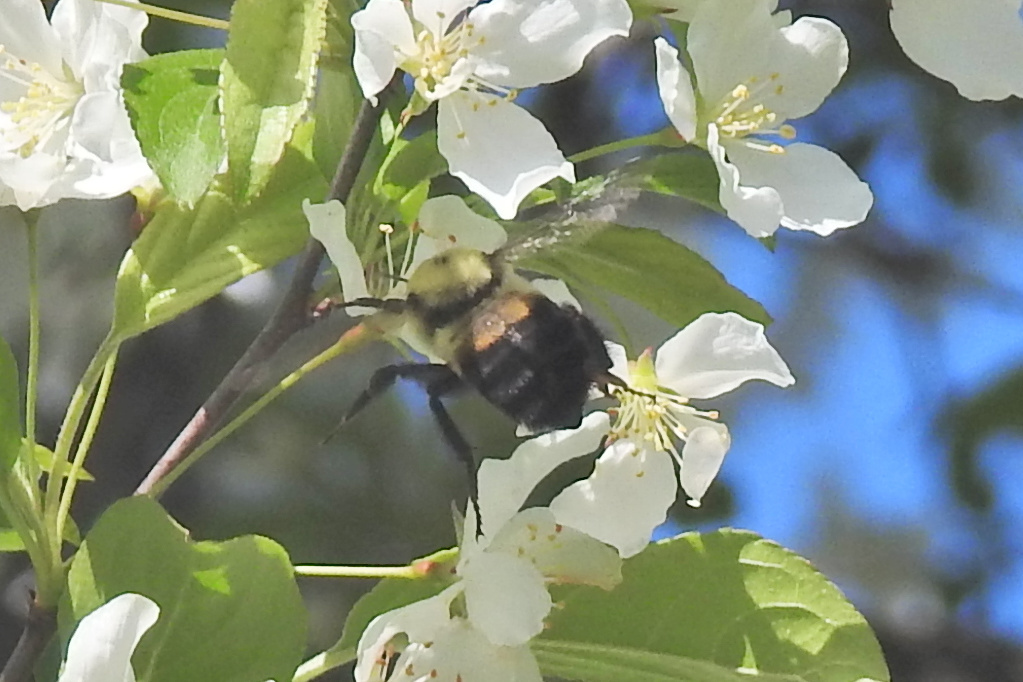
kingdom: Animalia
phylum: Arthropoda
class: Insecta
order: Hymenoptera
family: Apidae
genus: Bombus
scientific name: Bombus griseocollis
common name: Brown-belted bumble bee
